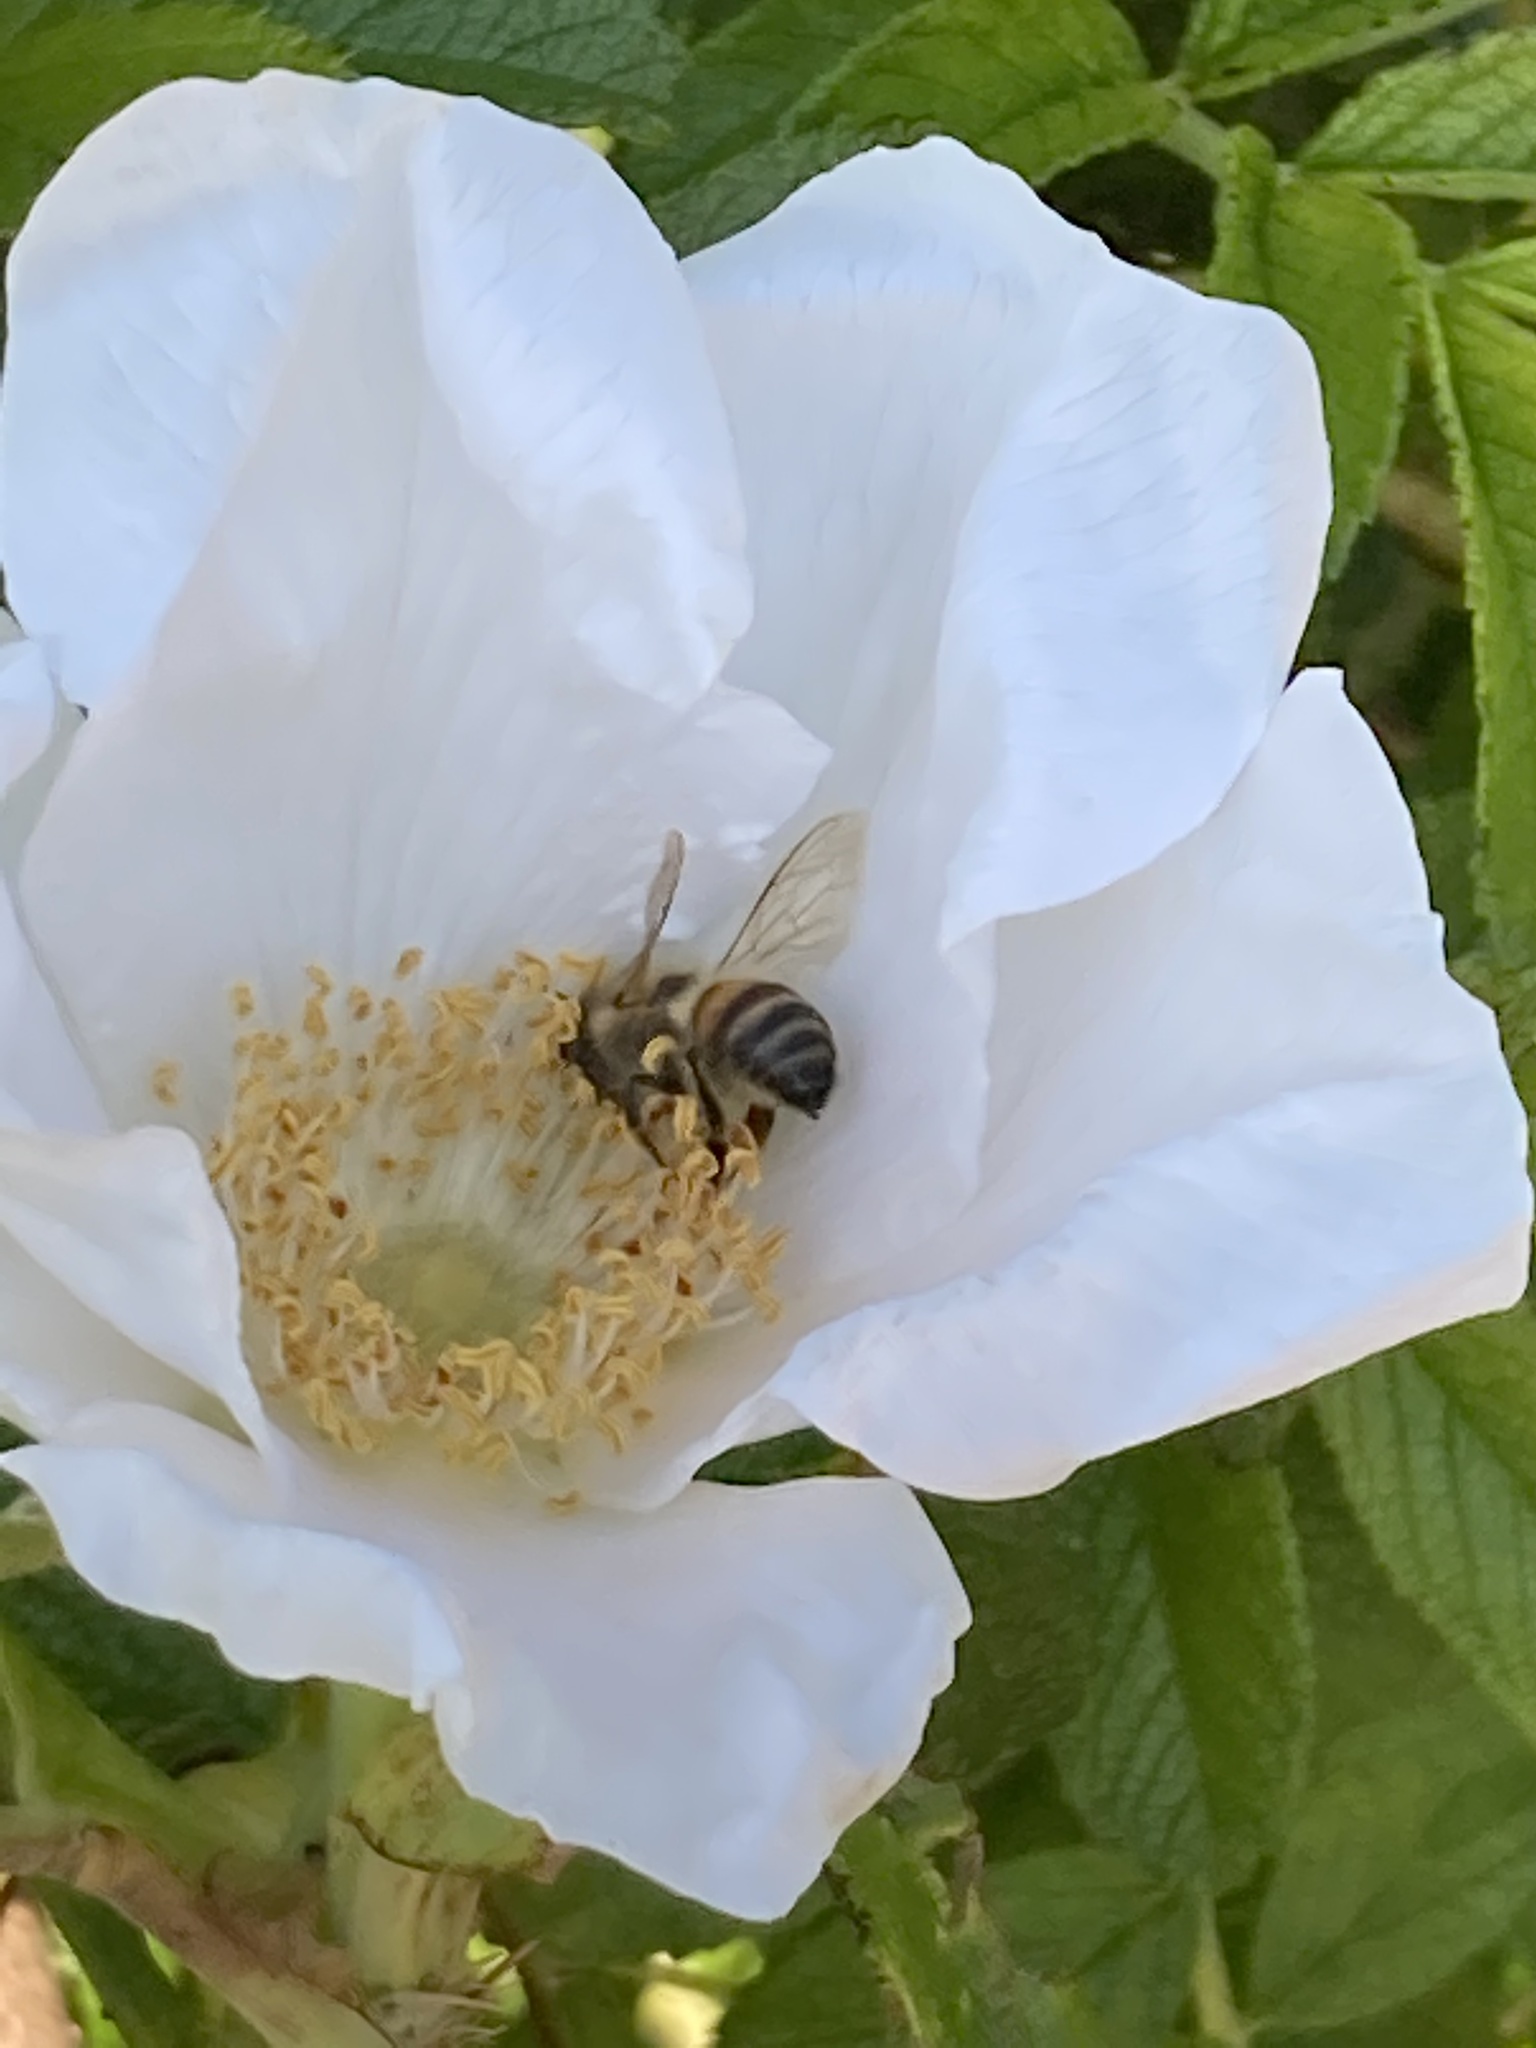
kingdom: Animalia
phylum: Arthropoda
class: Insecta
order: Hymenoptera
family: Apidae
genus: Apis
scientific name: Apis mellifera
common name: Honey bee
